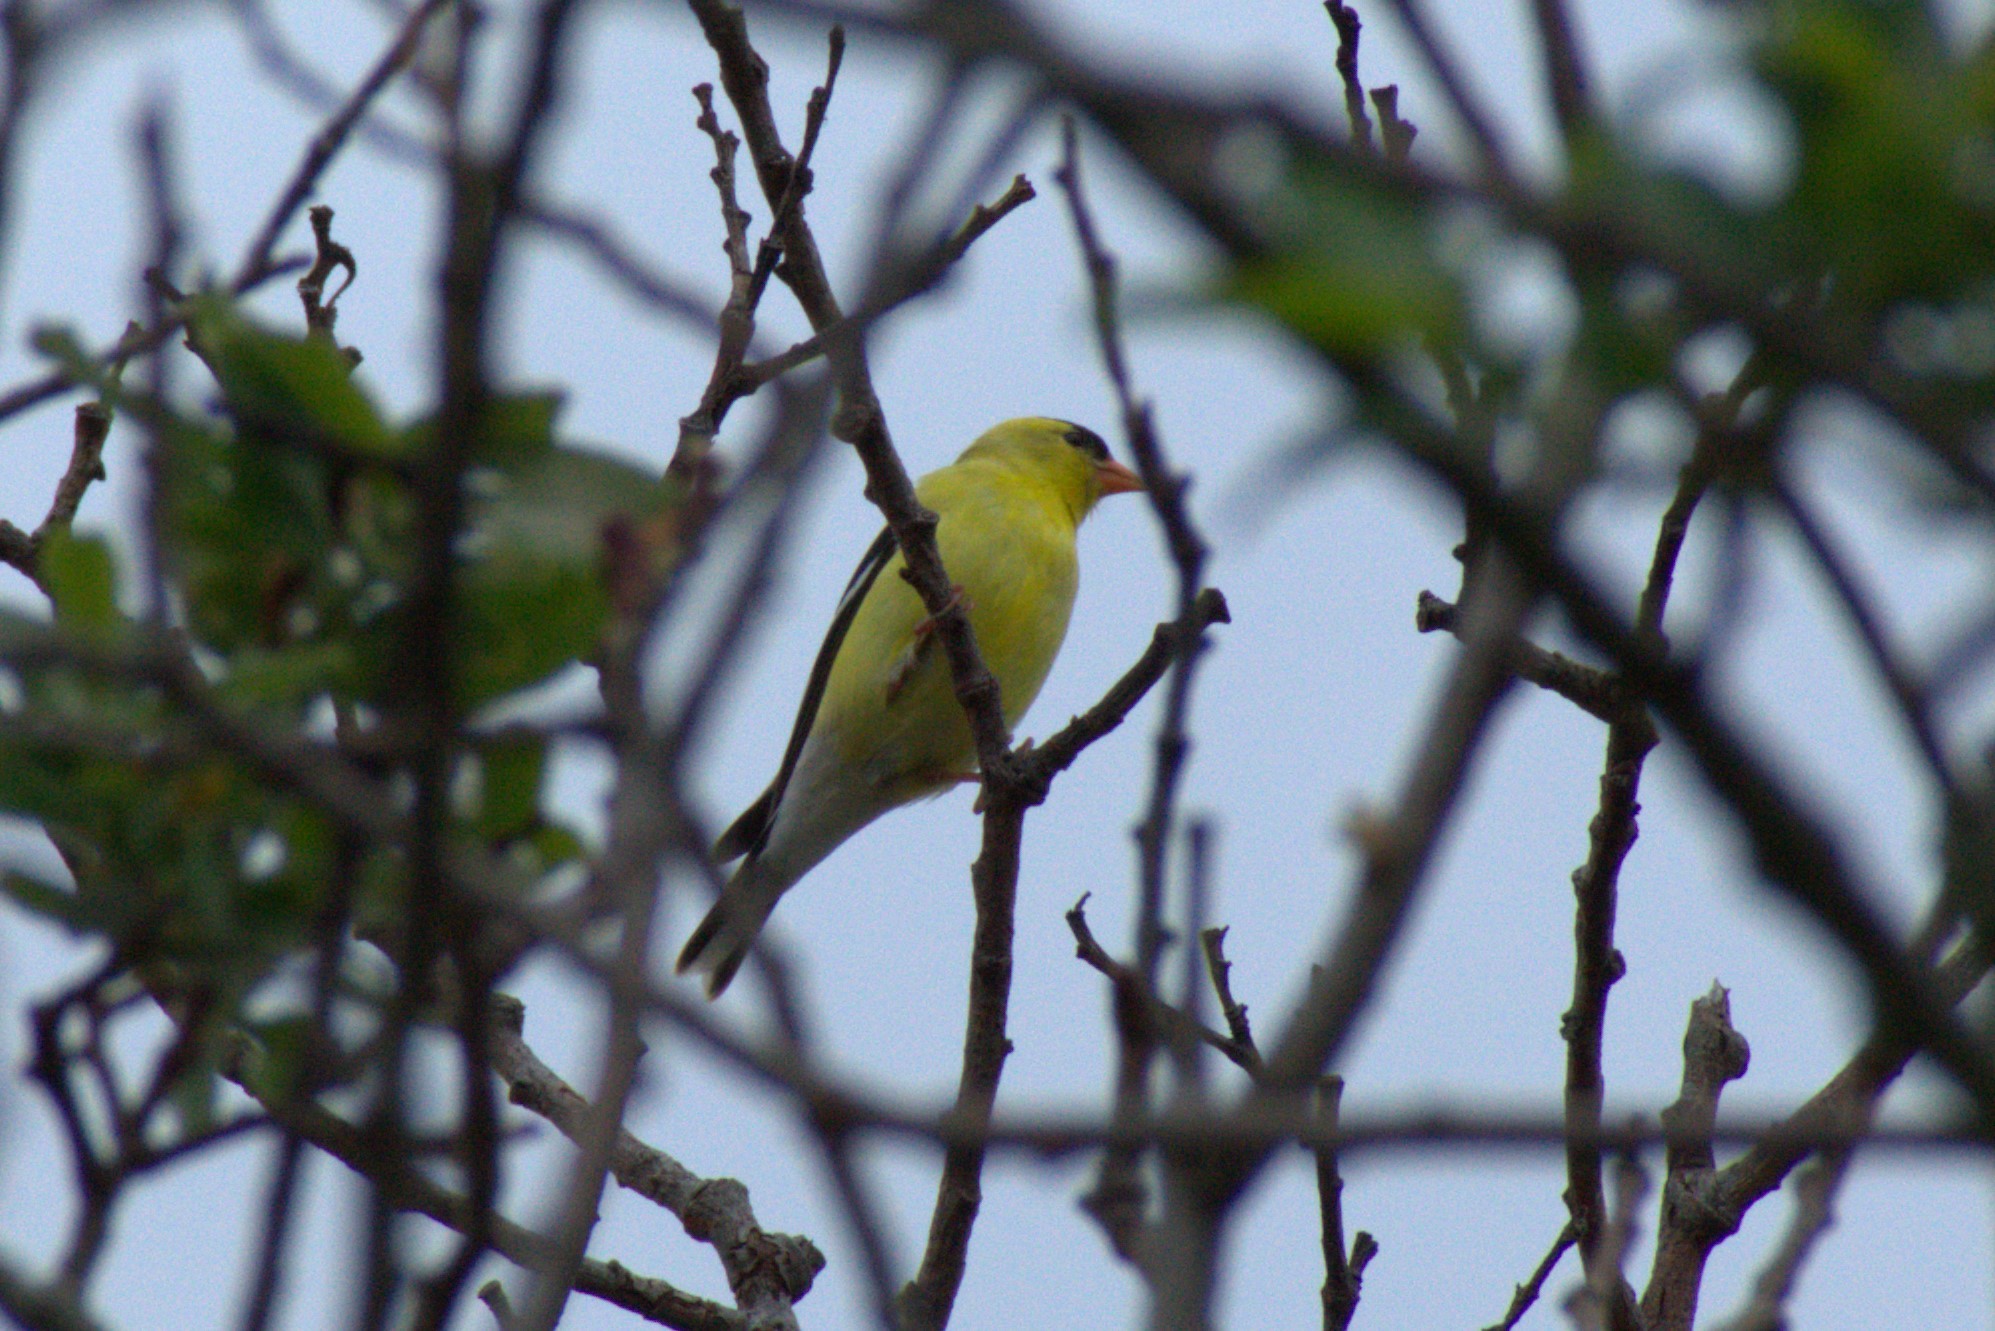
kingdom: Animalia
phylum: Chordata
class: Aves
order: Passeriformes
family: Fringillidae
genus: Spinus
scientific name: Spinus tristis
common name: American goldfinch
